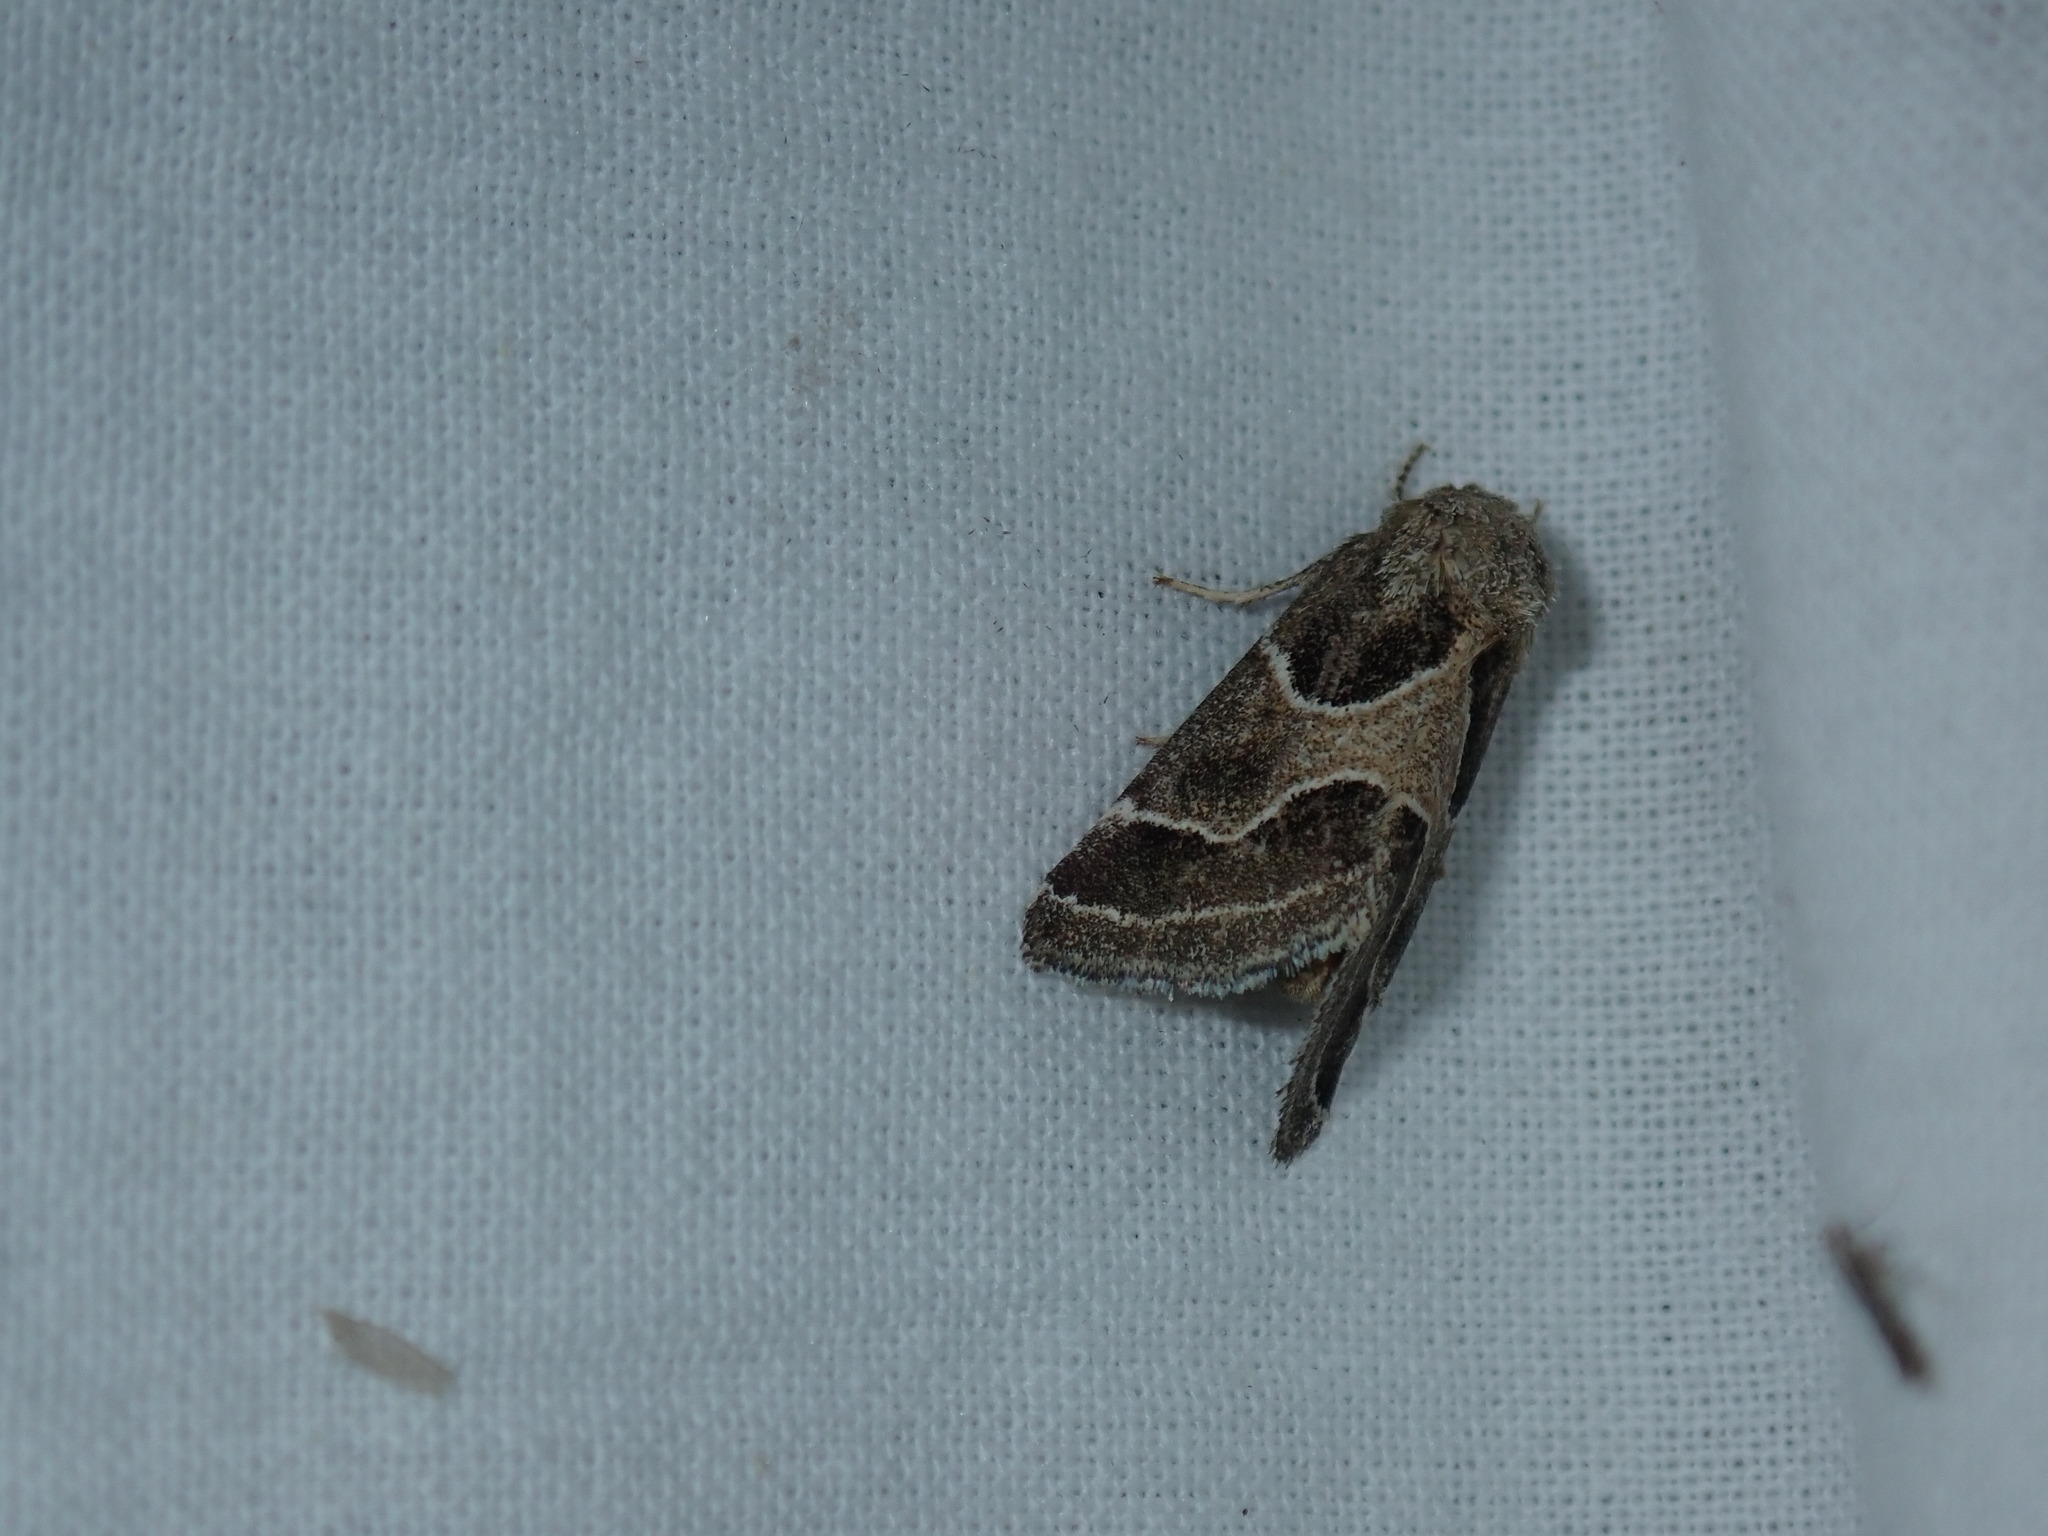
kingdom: Animalia
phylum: Arthropoda
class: Insecta
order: Lepidoptera
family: Noctuidae
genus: Schinia
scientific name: Schinia rivulosa
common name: Scarce meal-moth
